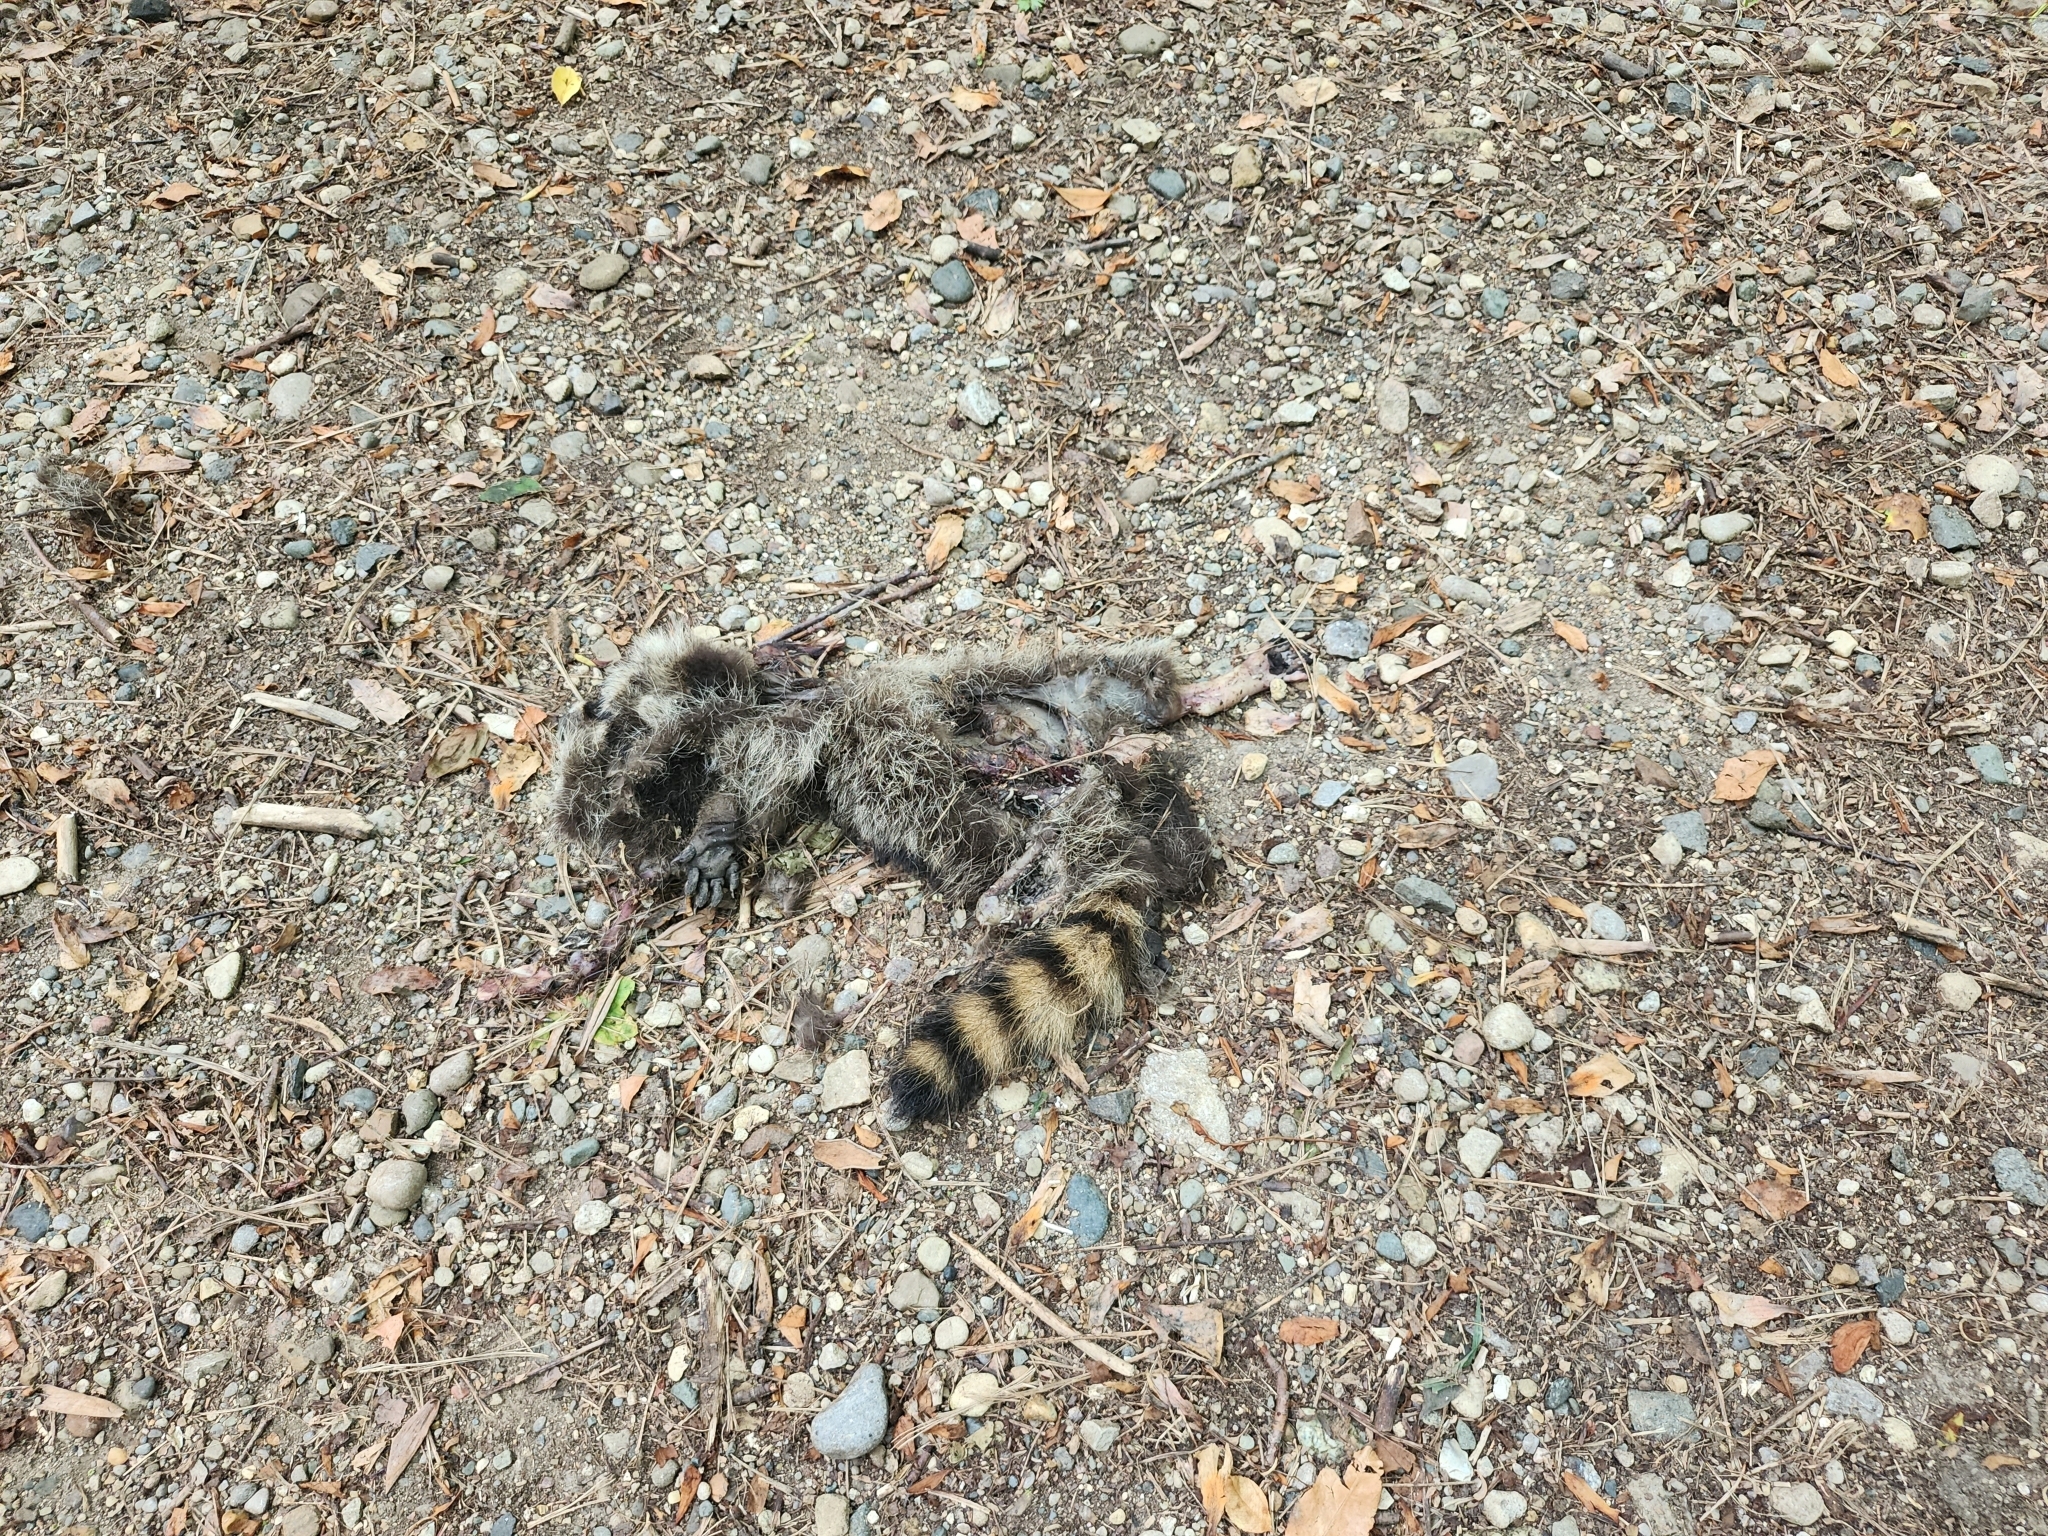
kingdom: Animalia
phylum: Chordata
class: Mammalia
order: Carnivora
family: Procyonidae
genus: Procyon
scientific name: Procyon lotor
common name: Raccoon
